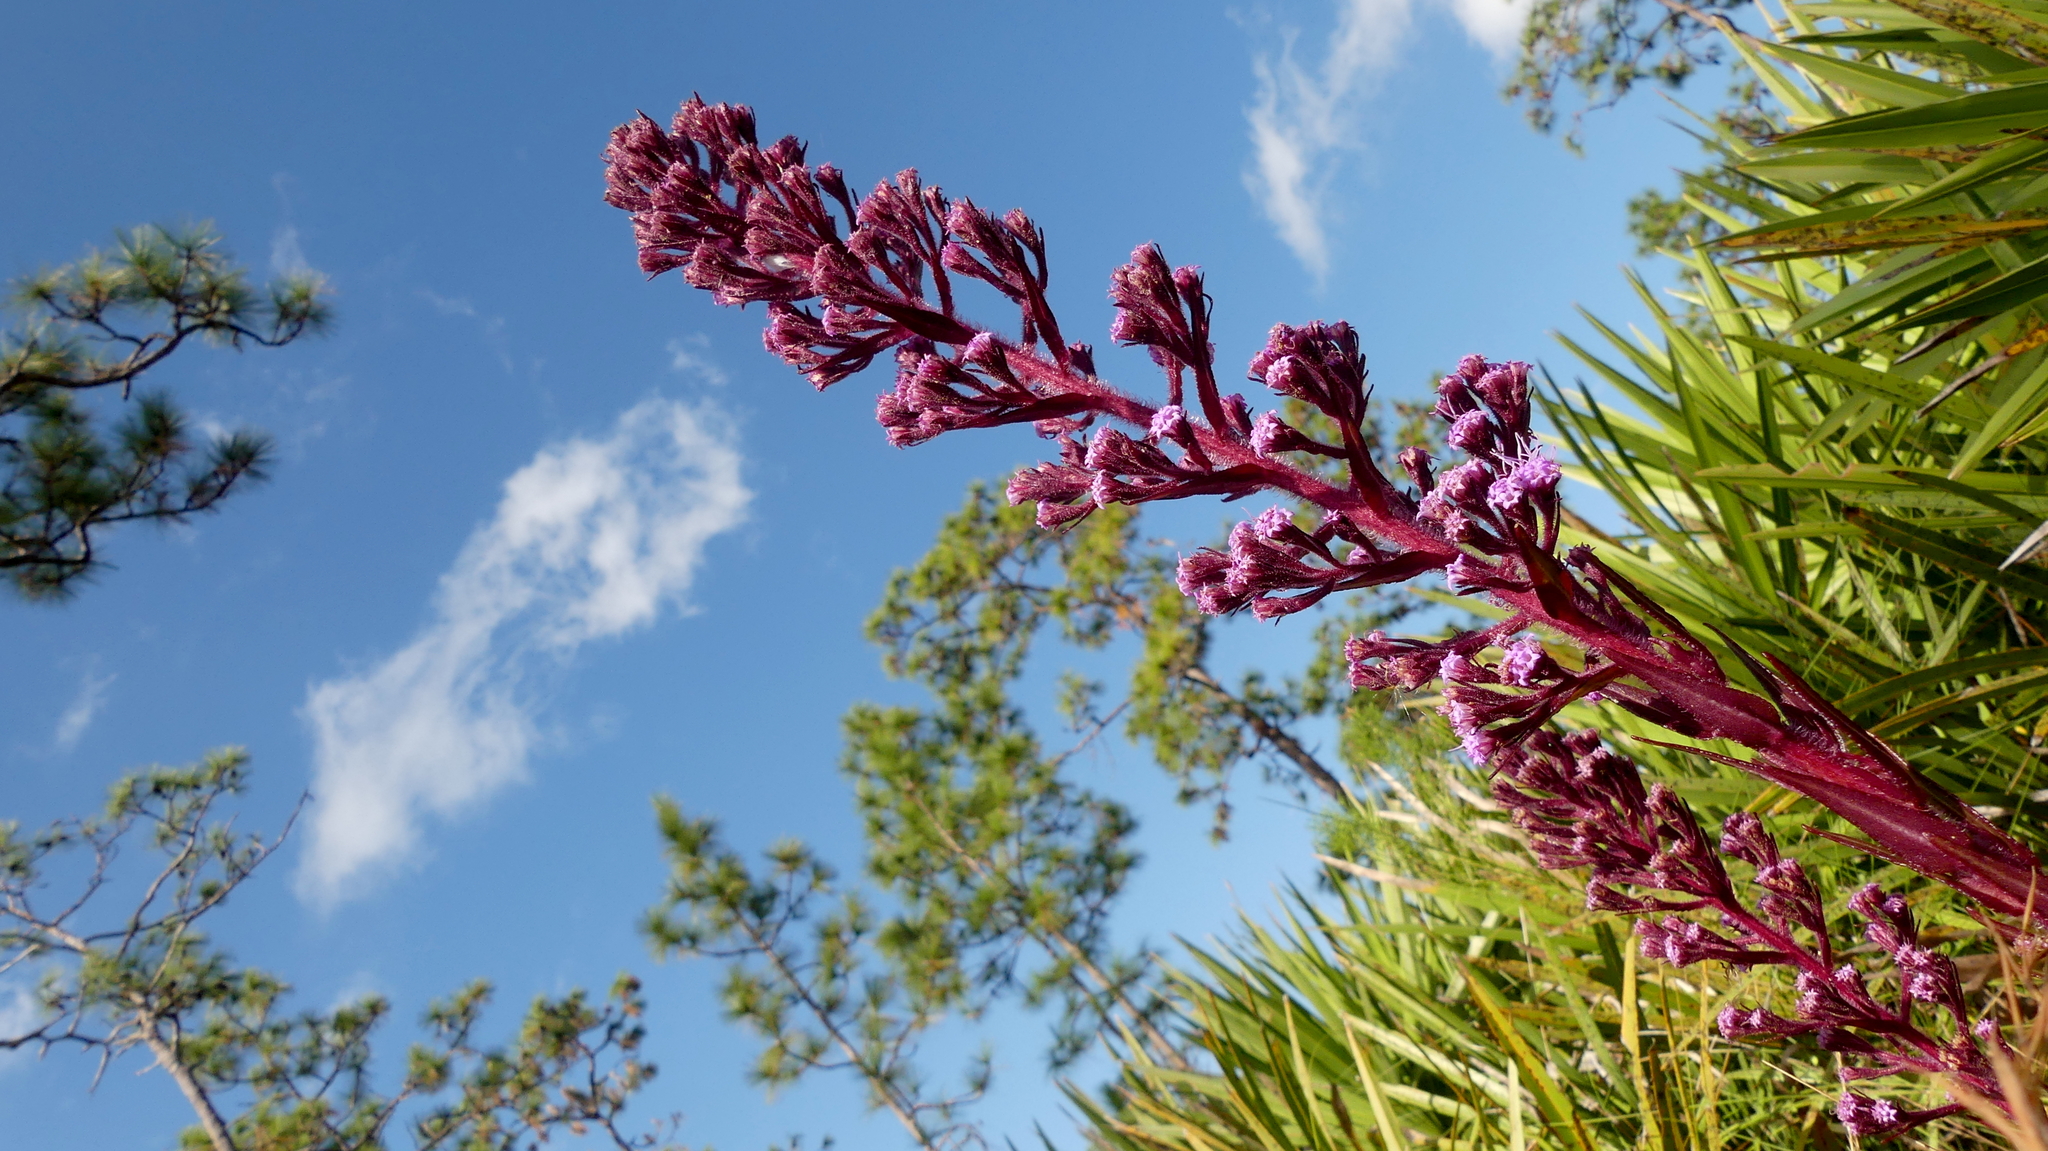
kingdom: Plantae
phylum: Tracheophyta
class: Magnoliopsida
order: Asterales
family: Asteraceae
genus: Carphephorus
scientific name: Carphephorus paniculatus
